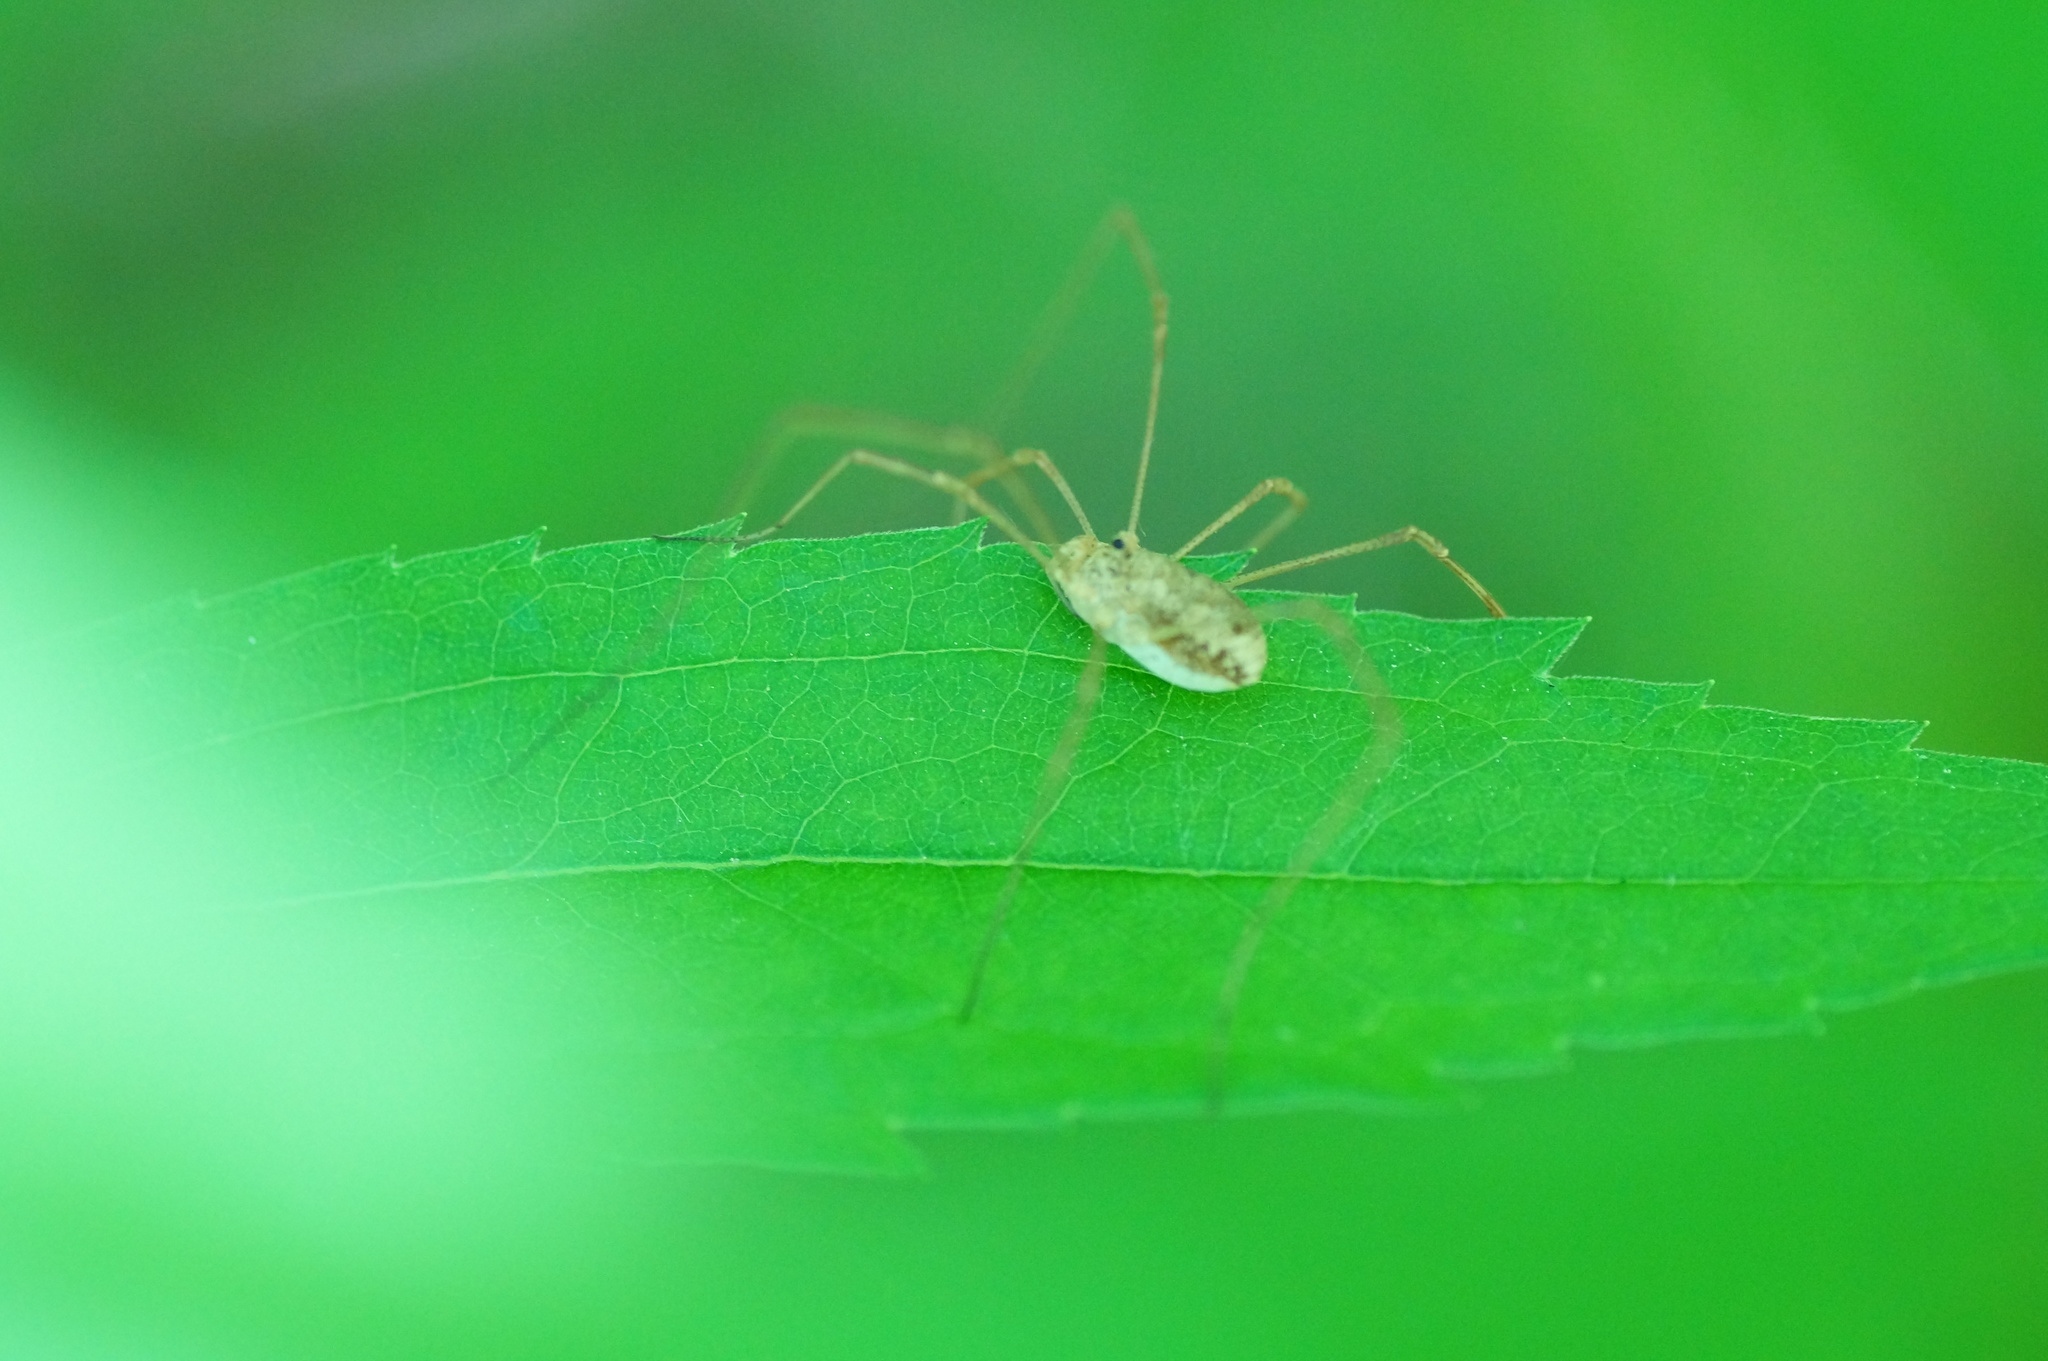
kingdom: Animalia
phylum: Arthropoda
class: Arachnida
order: Opiliones
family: Phalangiidae
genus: Rilaena
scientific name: Rilaena triangularis
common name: Spring harvestman
